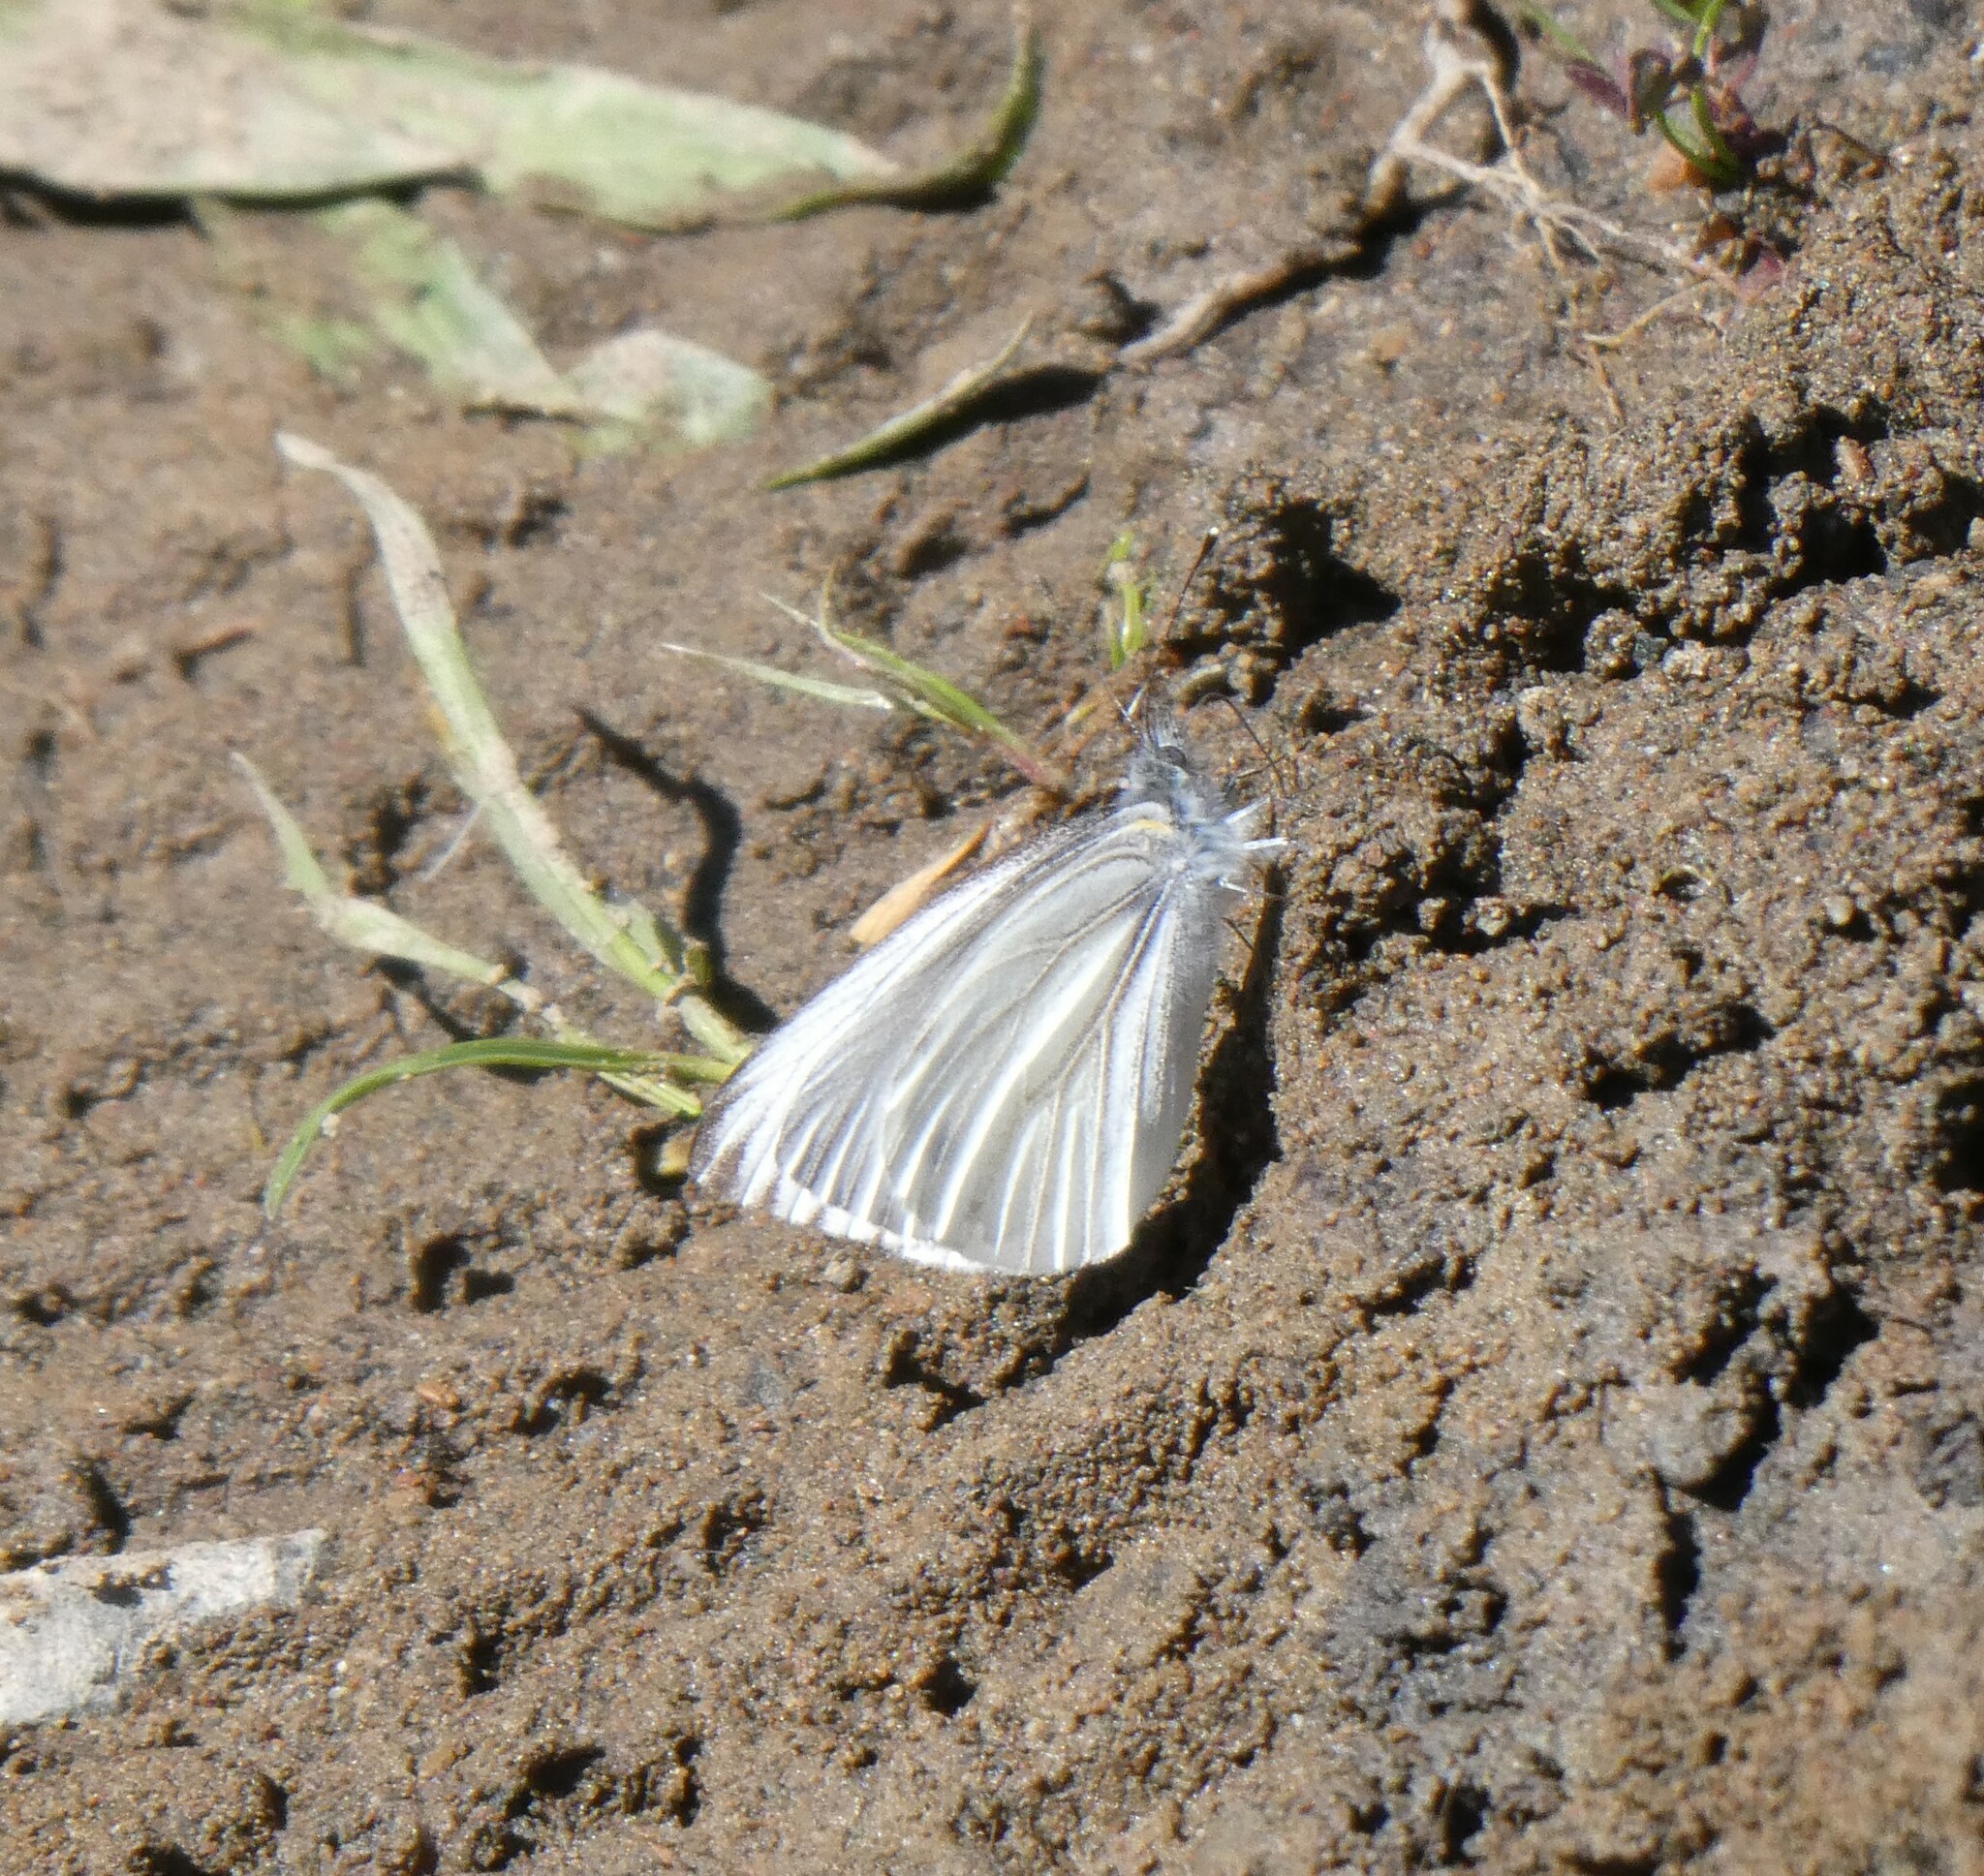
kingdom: Animalia
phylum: Arthropoda
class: Insecta
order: Lepidoptera
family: Pieridae
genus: Pieris
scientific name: Pieris marginalis
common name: Margined white
